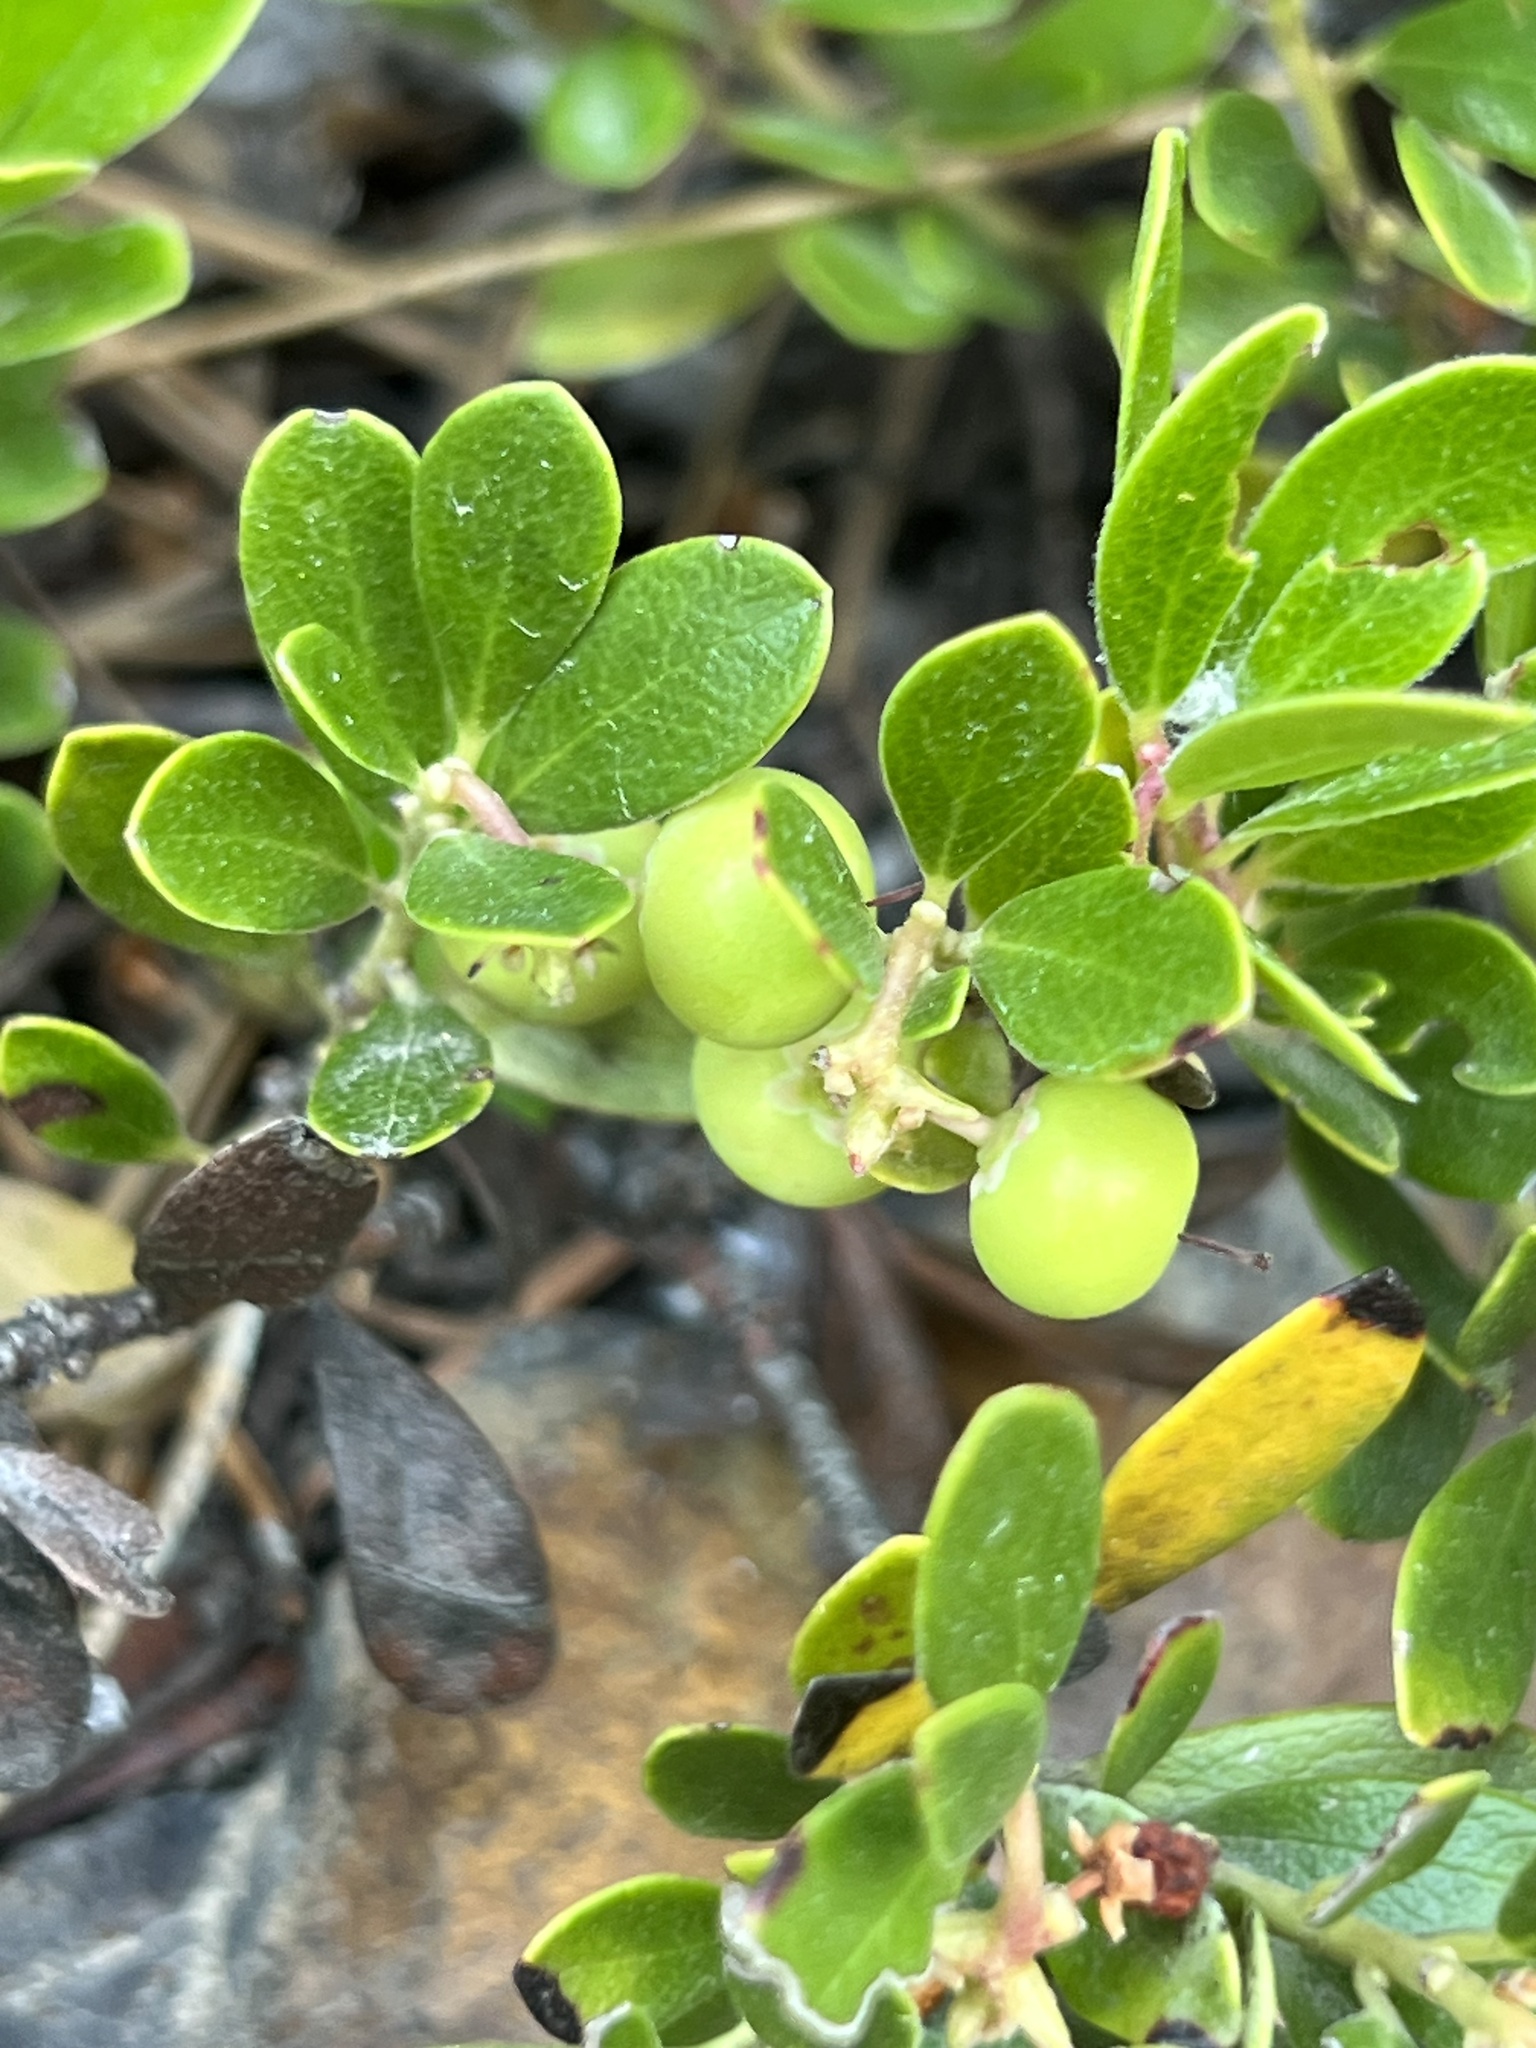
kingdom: Plantae
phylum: Tracheophyta
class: Magnoliopsida
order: Ericales
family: Ericaceae
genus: Arctostaphylos
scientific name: Arctostaphylos uva-ursi
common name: Bearberry
